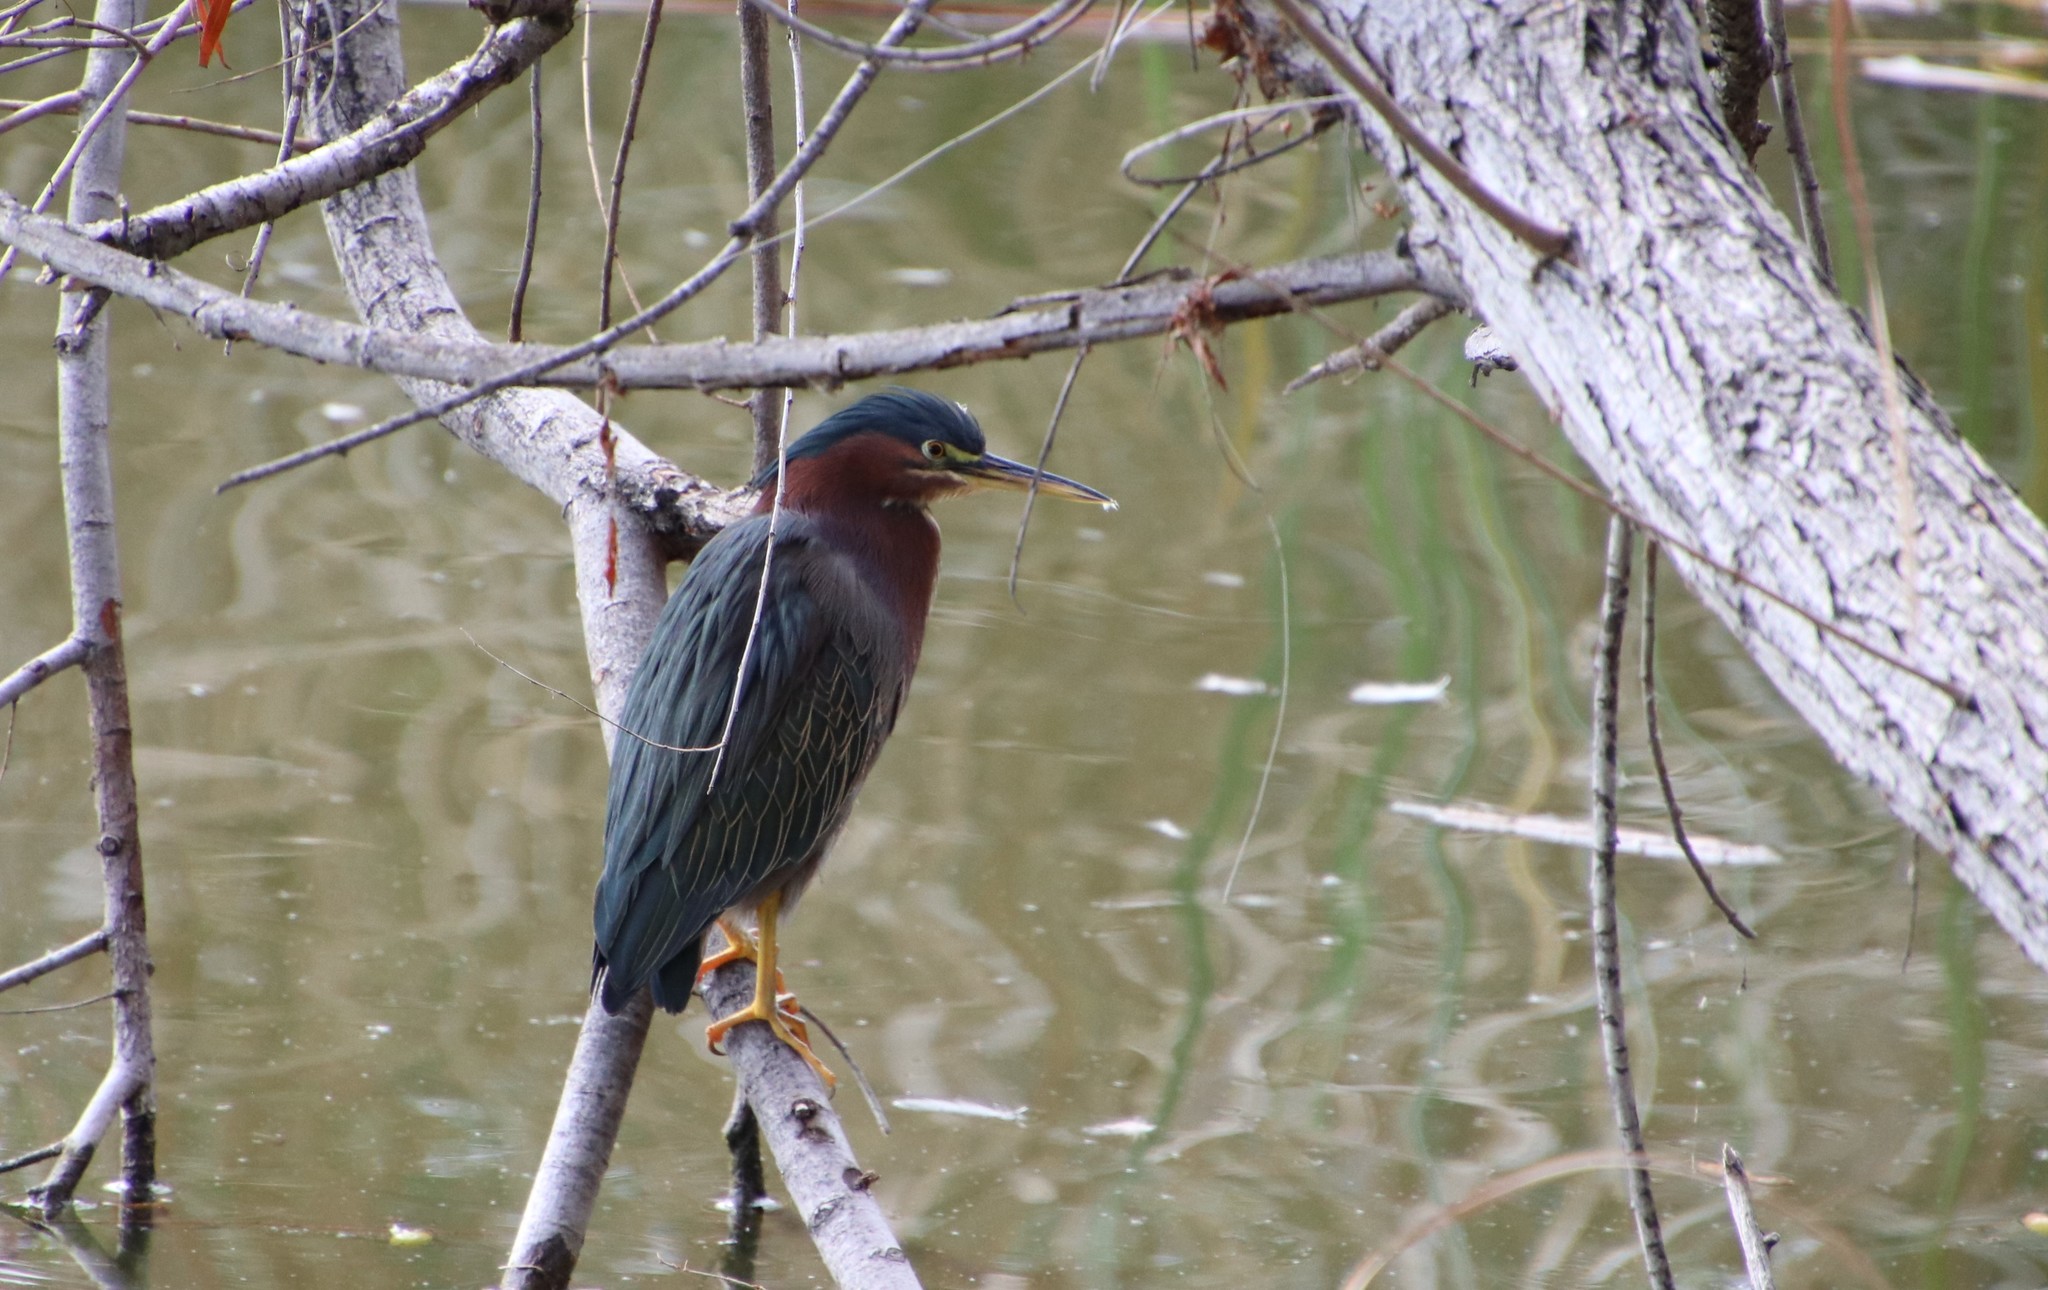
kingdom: Animalia
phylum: Chordata
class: Aves
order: Pelecaniformes
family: Ardeidae
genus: Butorides
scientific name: Butorides virescens
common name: Green heron
